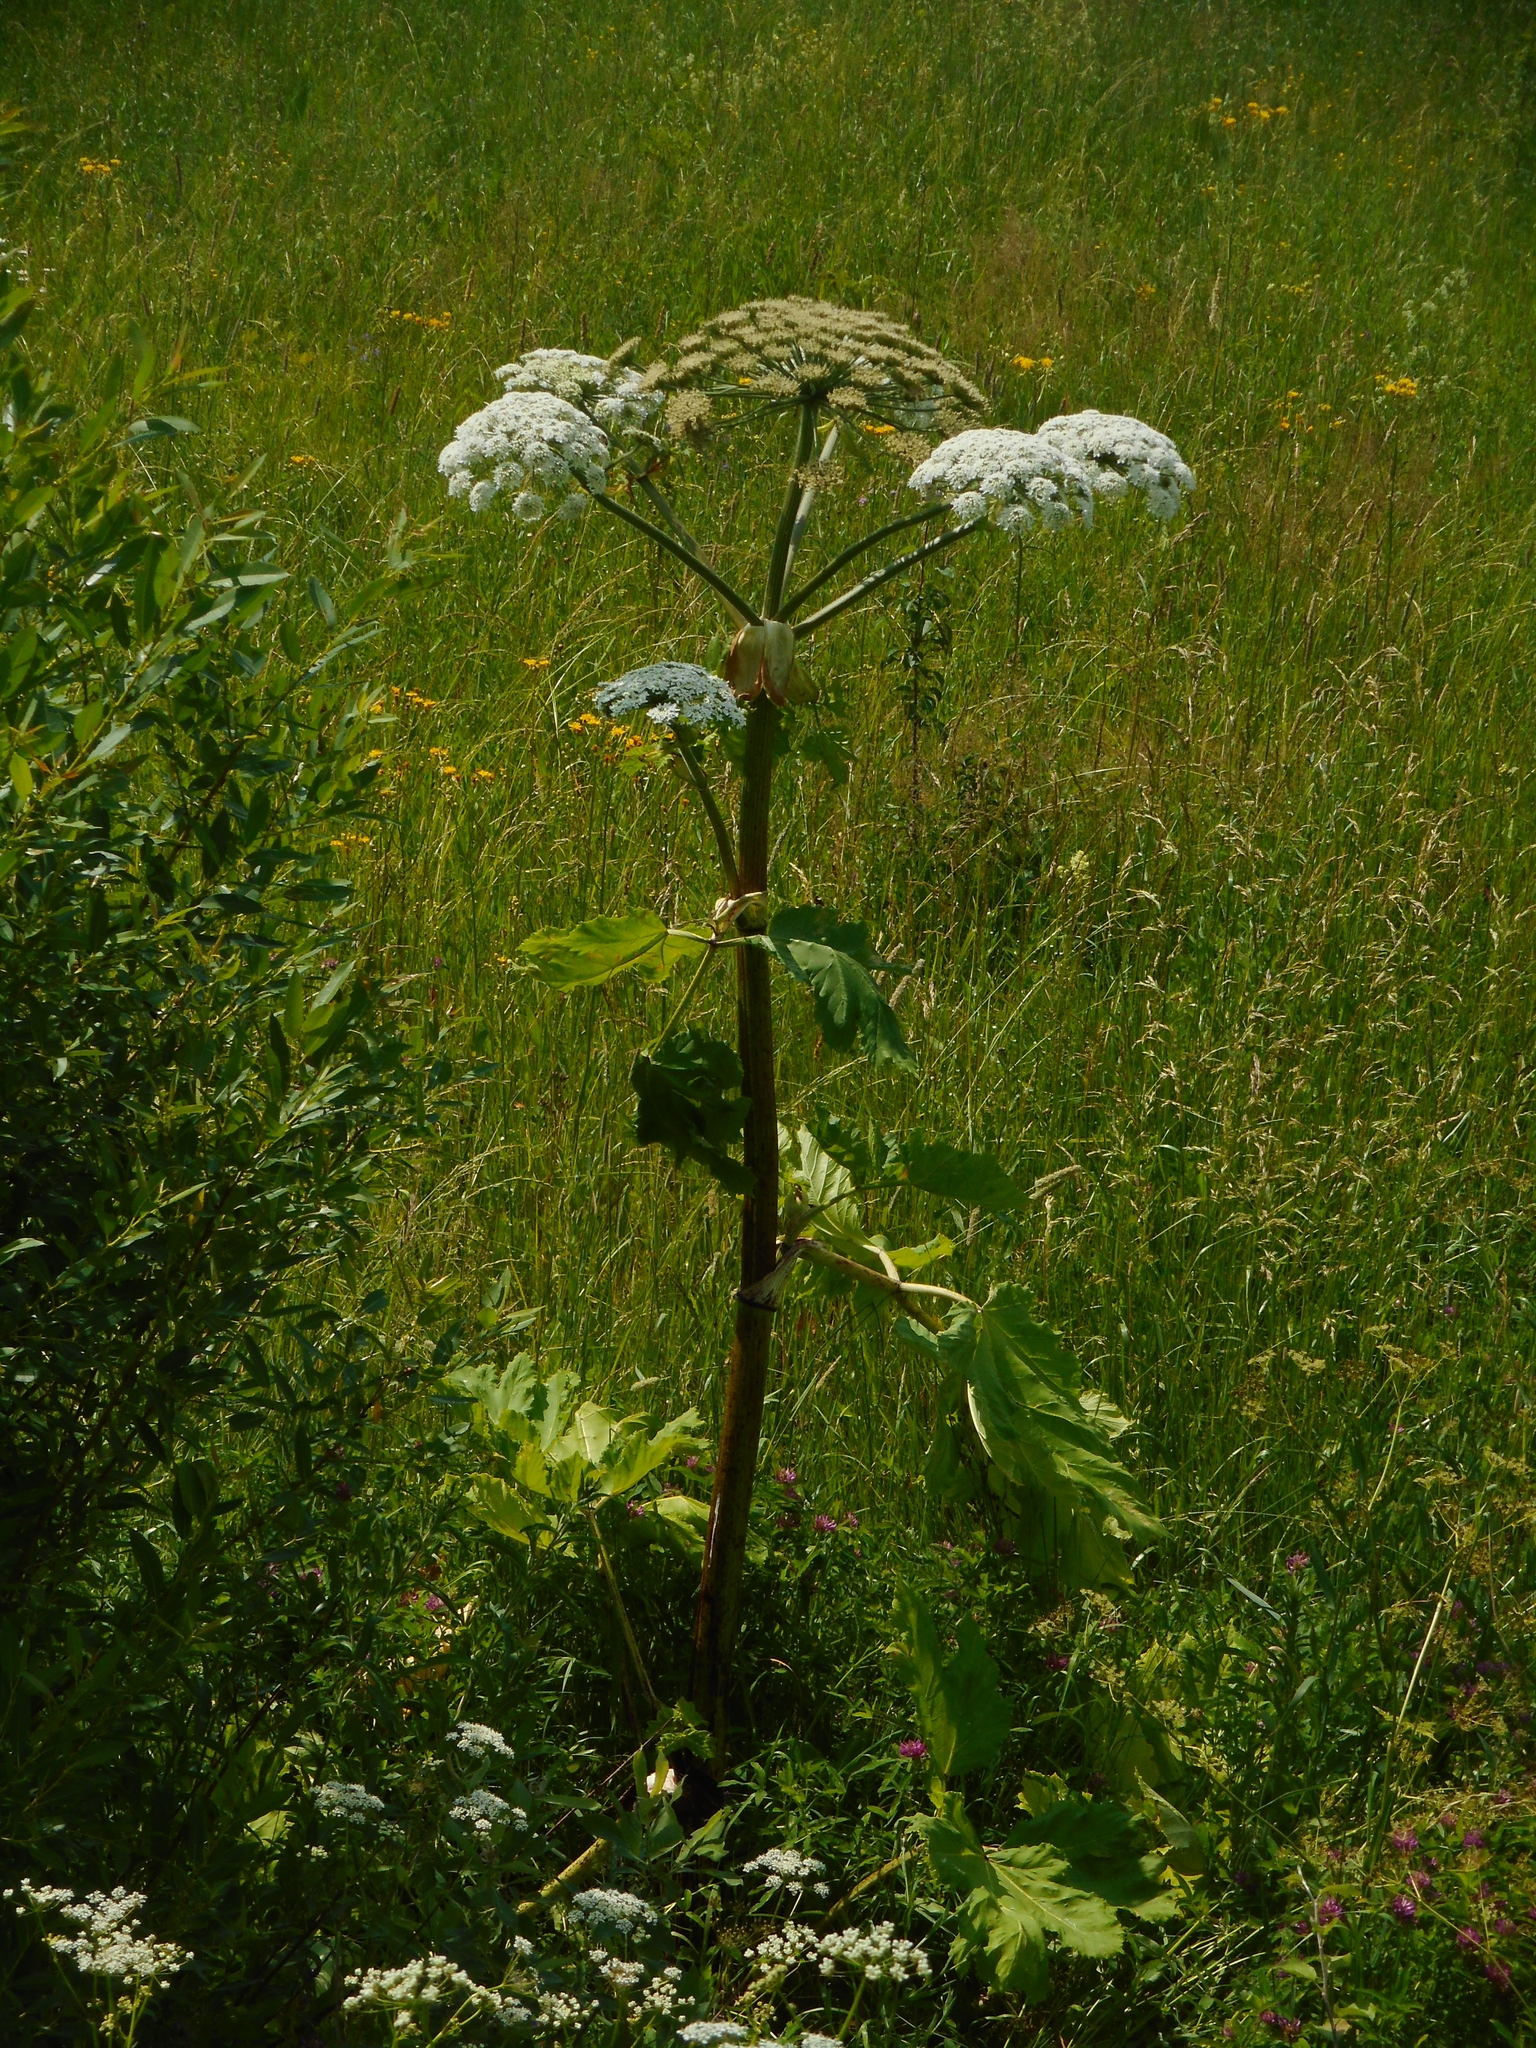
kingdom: Plantae
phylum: Tracheophyta
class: Magnoliopsida
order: Apiales
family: Apiaceae
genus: Heracleum
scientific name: Heracleum sosnowskyi
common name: Sosnowsky's hogweed
